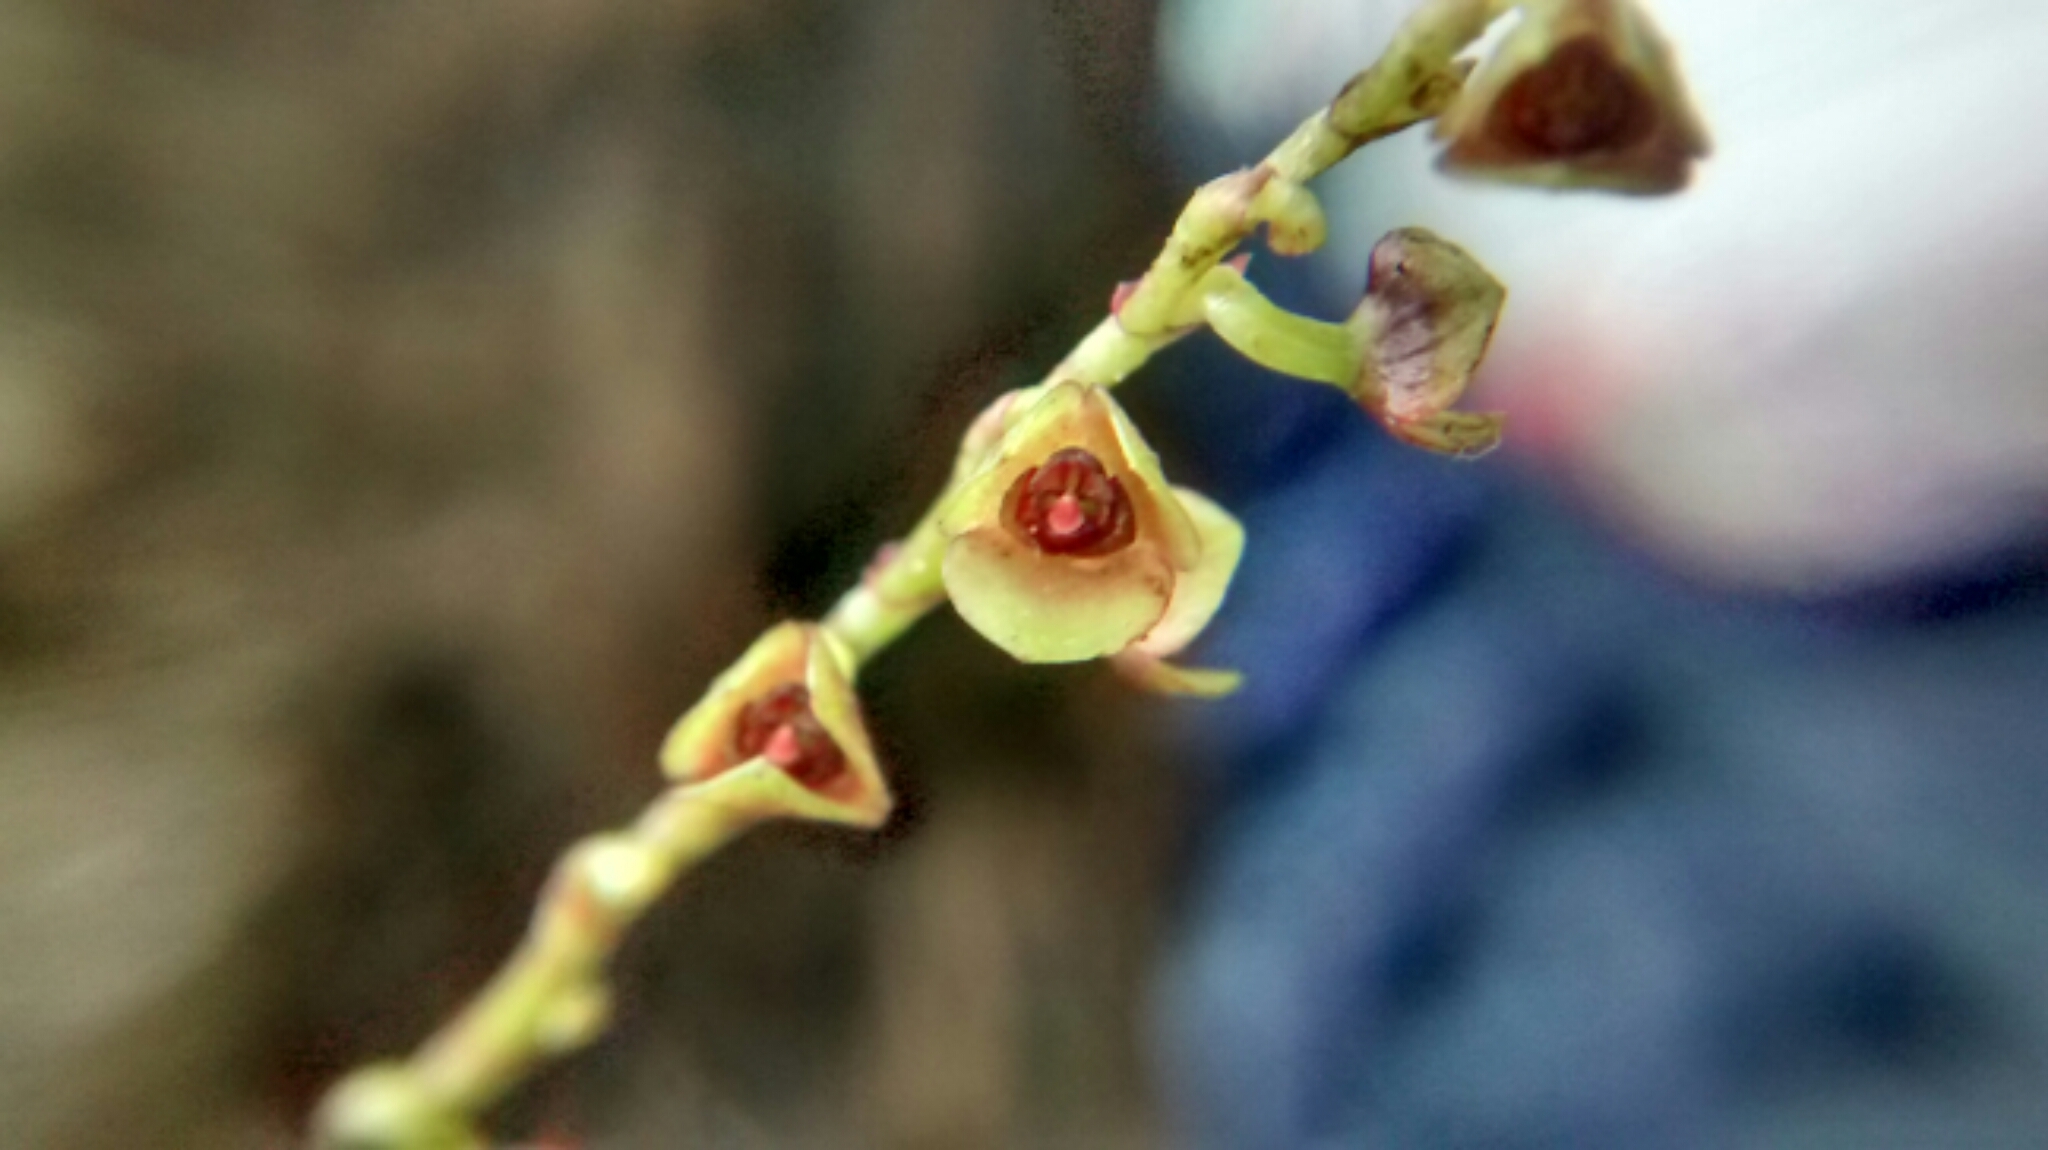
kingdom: Plantae
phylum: Tracheophyta
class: Liliopsida
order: Asparagales
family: Orchidaceae
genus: Stelis
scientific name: Stelis veracrucensis
